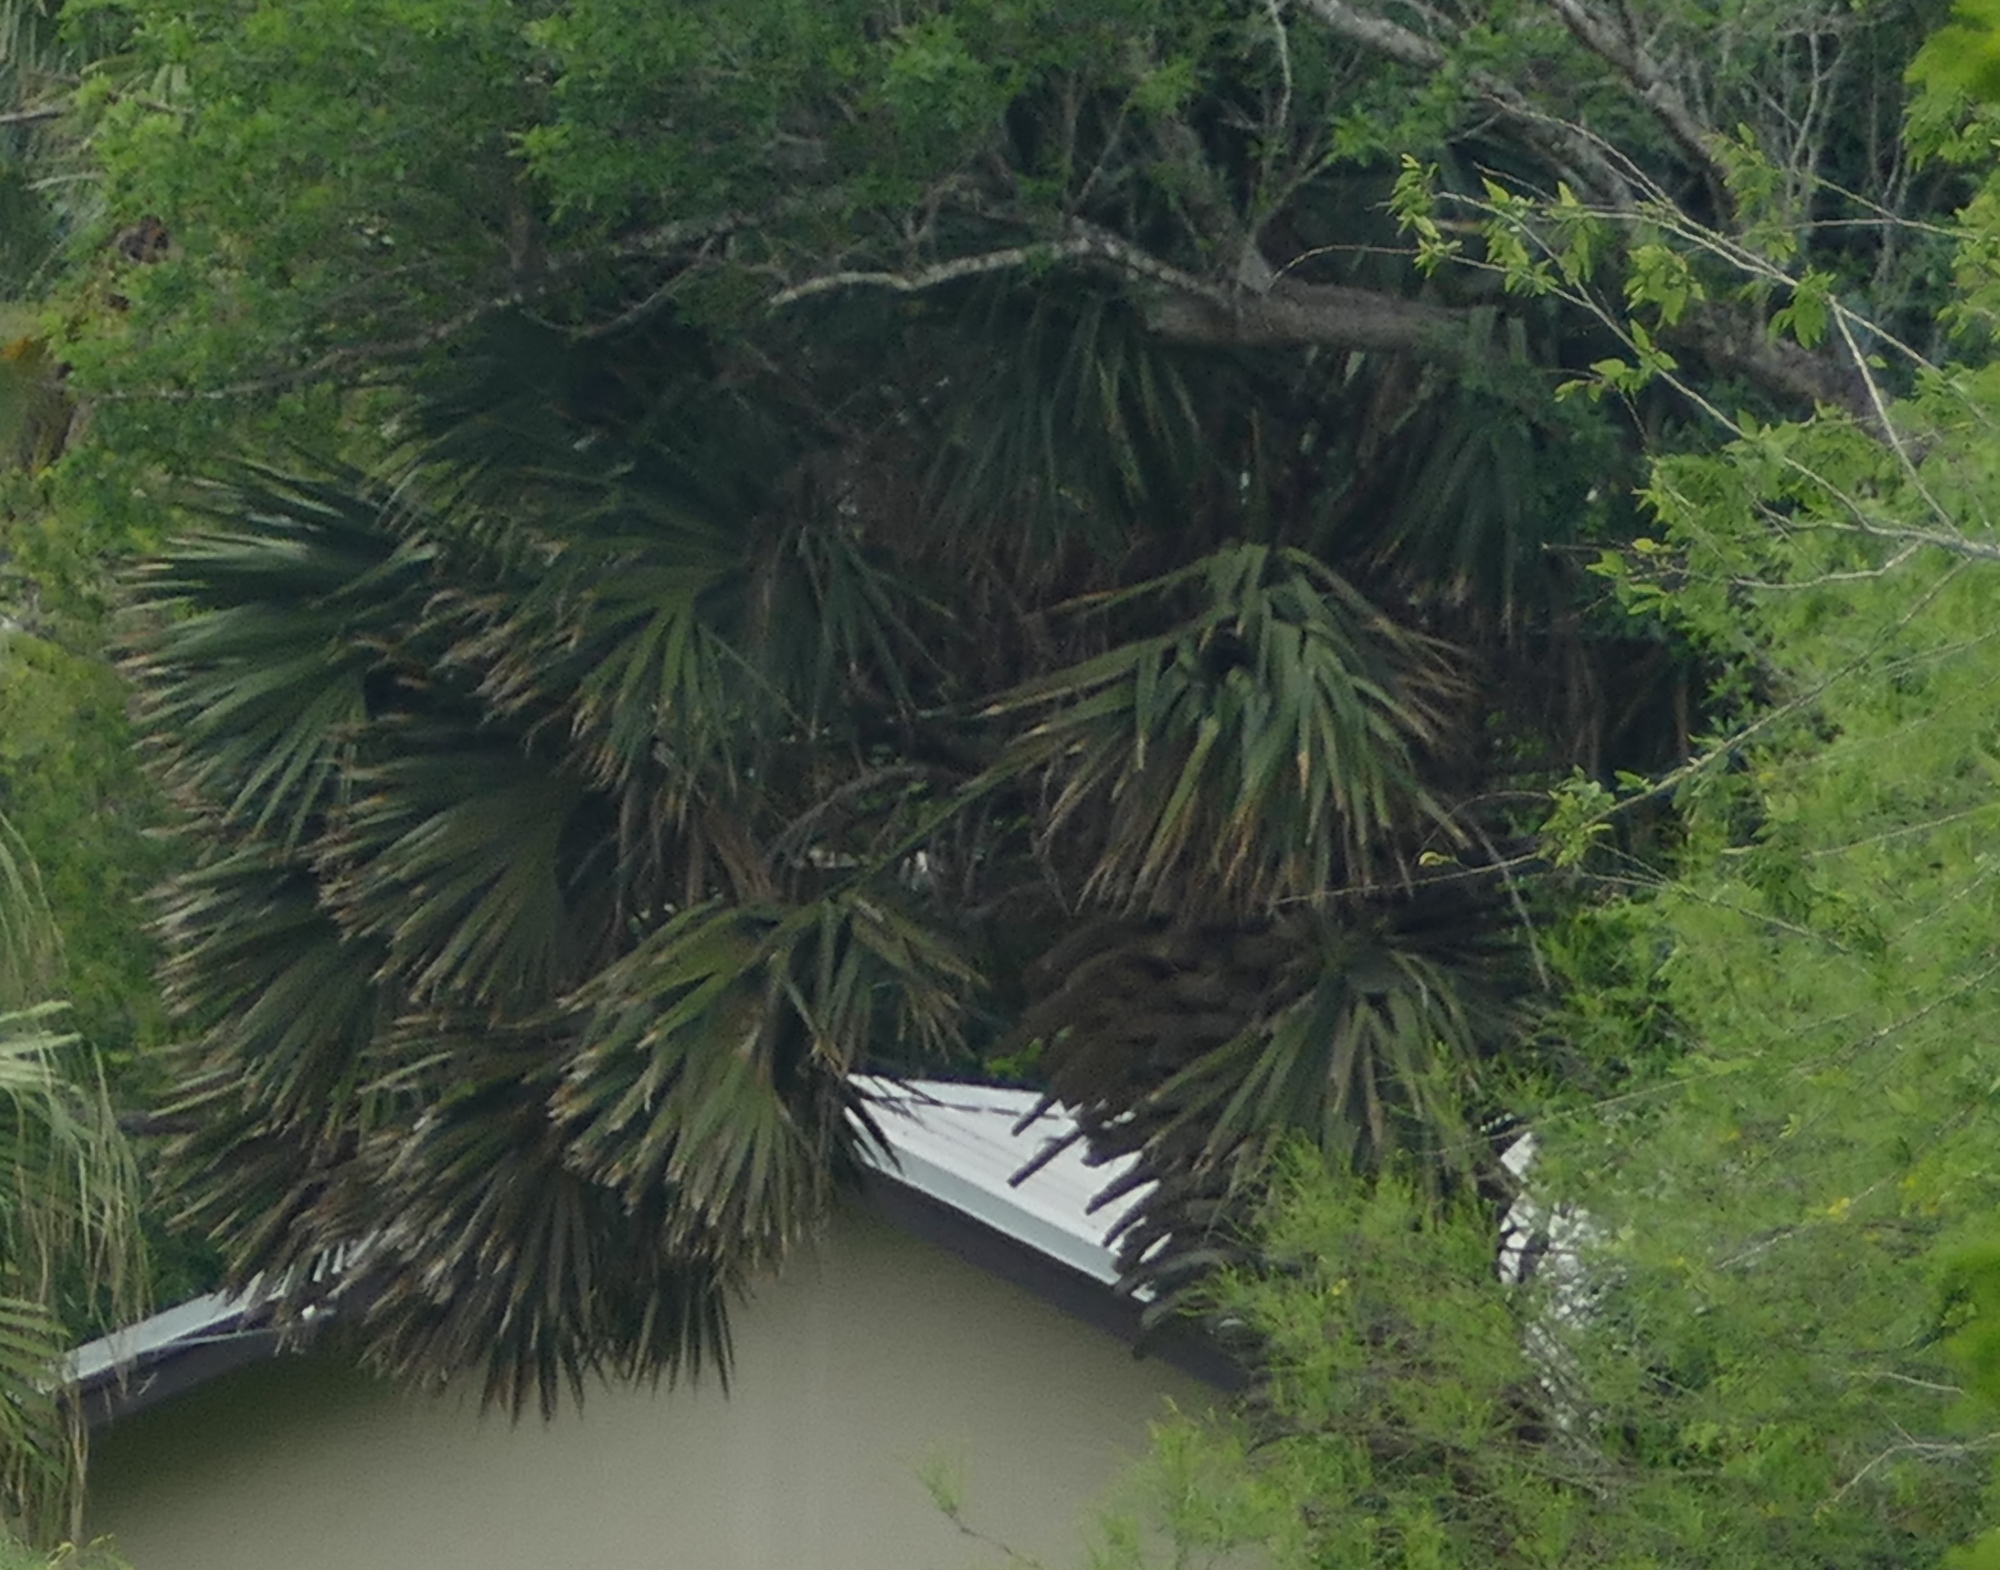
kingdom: Plantae
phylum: Tracheophyta
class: Liliopsida
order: Arecales
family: Arecaceae
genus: Sabal
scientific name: Sabal mexicana
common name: Texas palmetto
